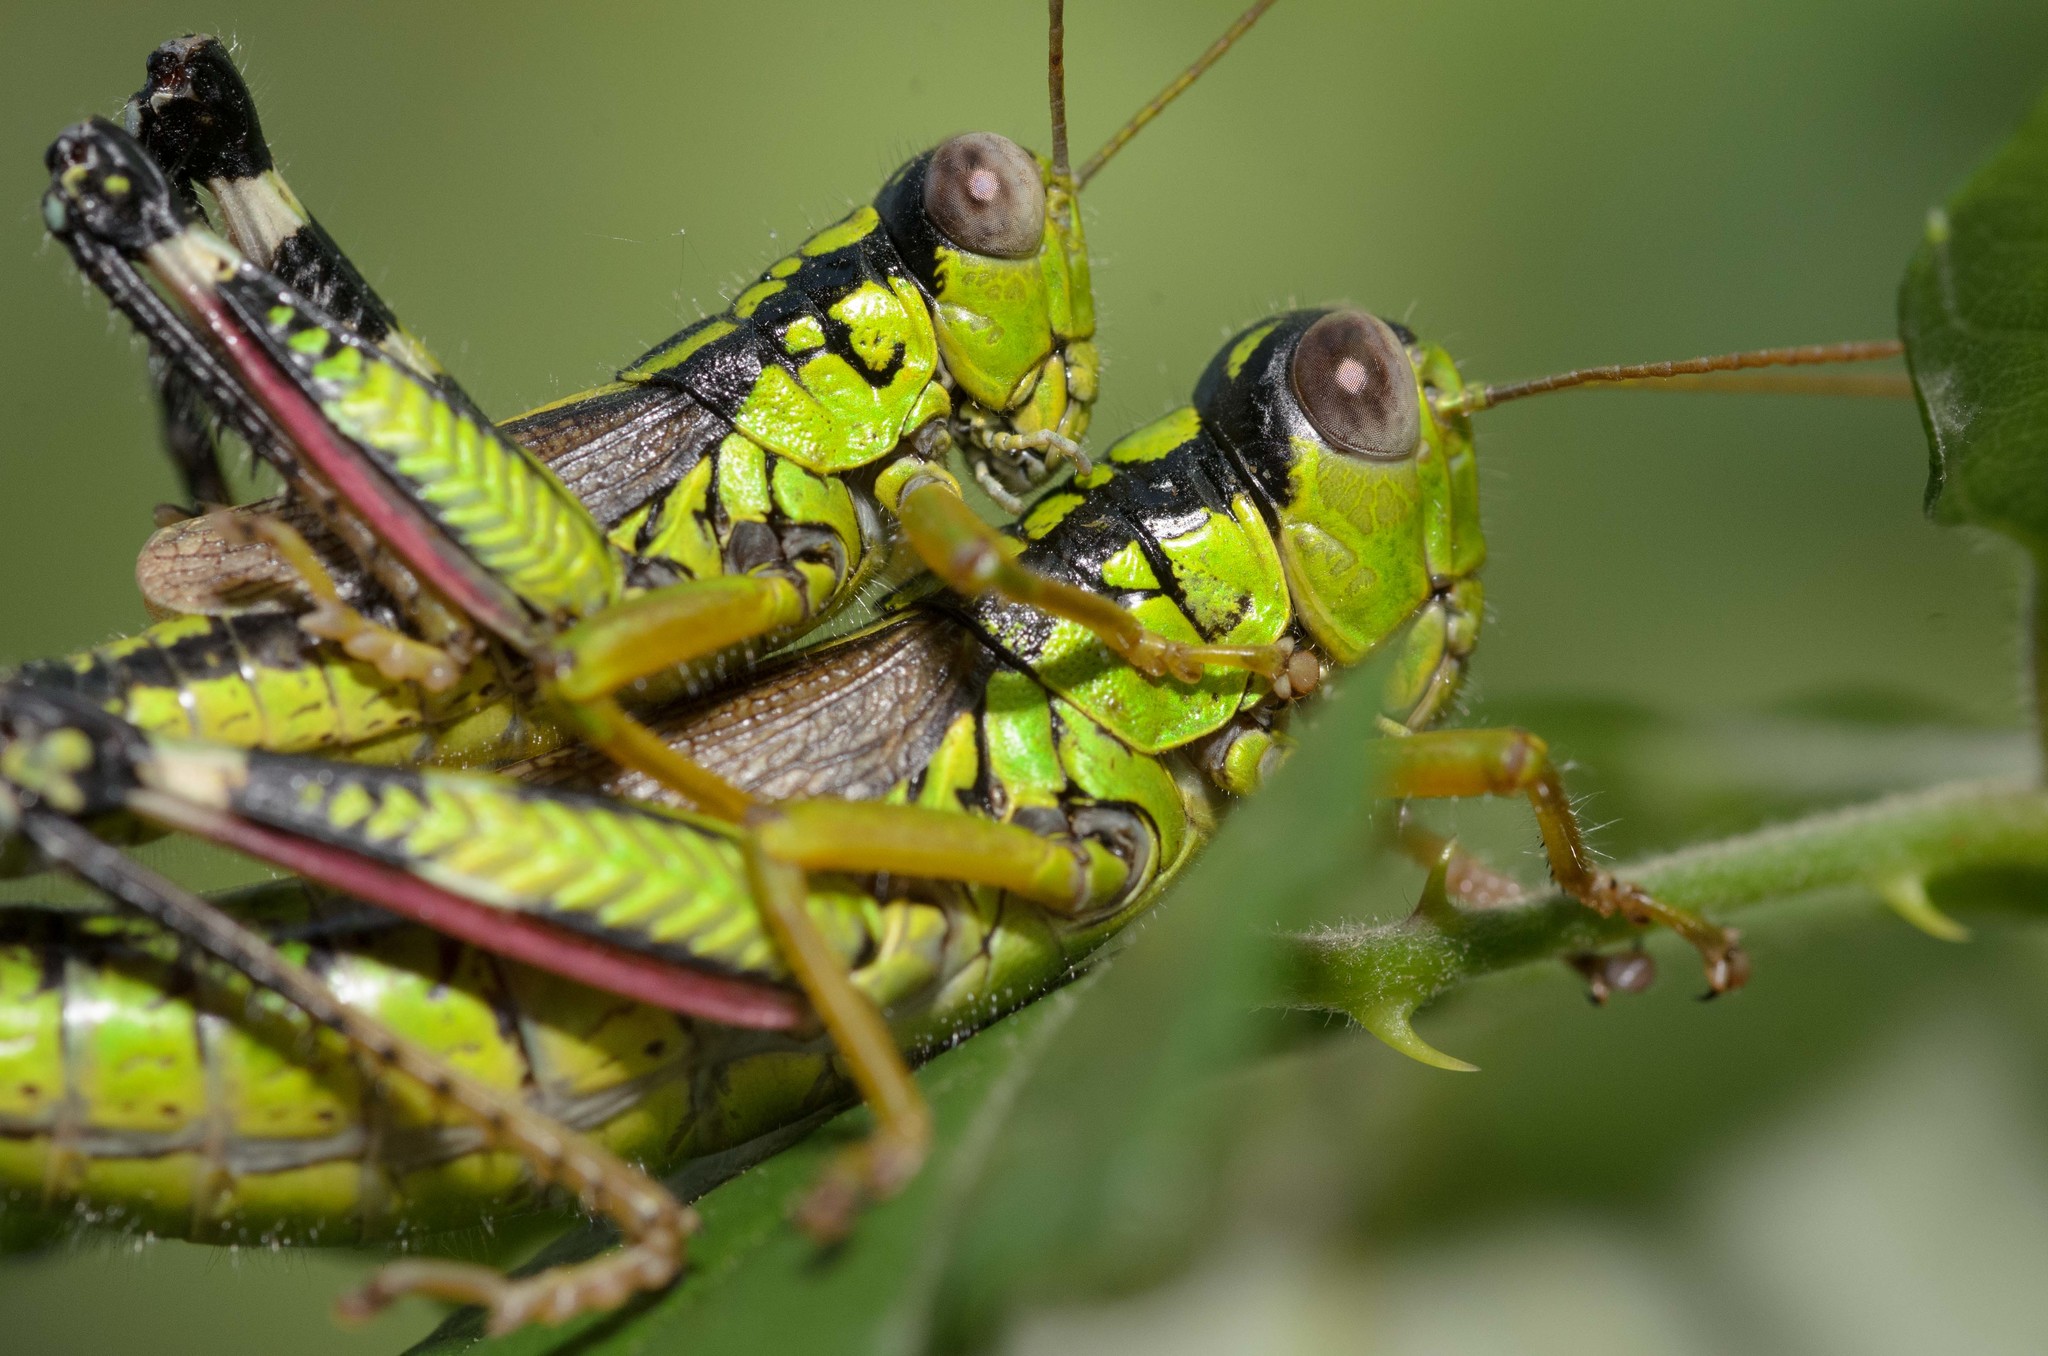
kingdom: Animalia
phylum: Arthropoda
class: Insecta
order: Orthoptera
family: Acrididae
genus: Miramella
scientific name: Miramella irena
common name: Long-winged mountain grasshopper
